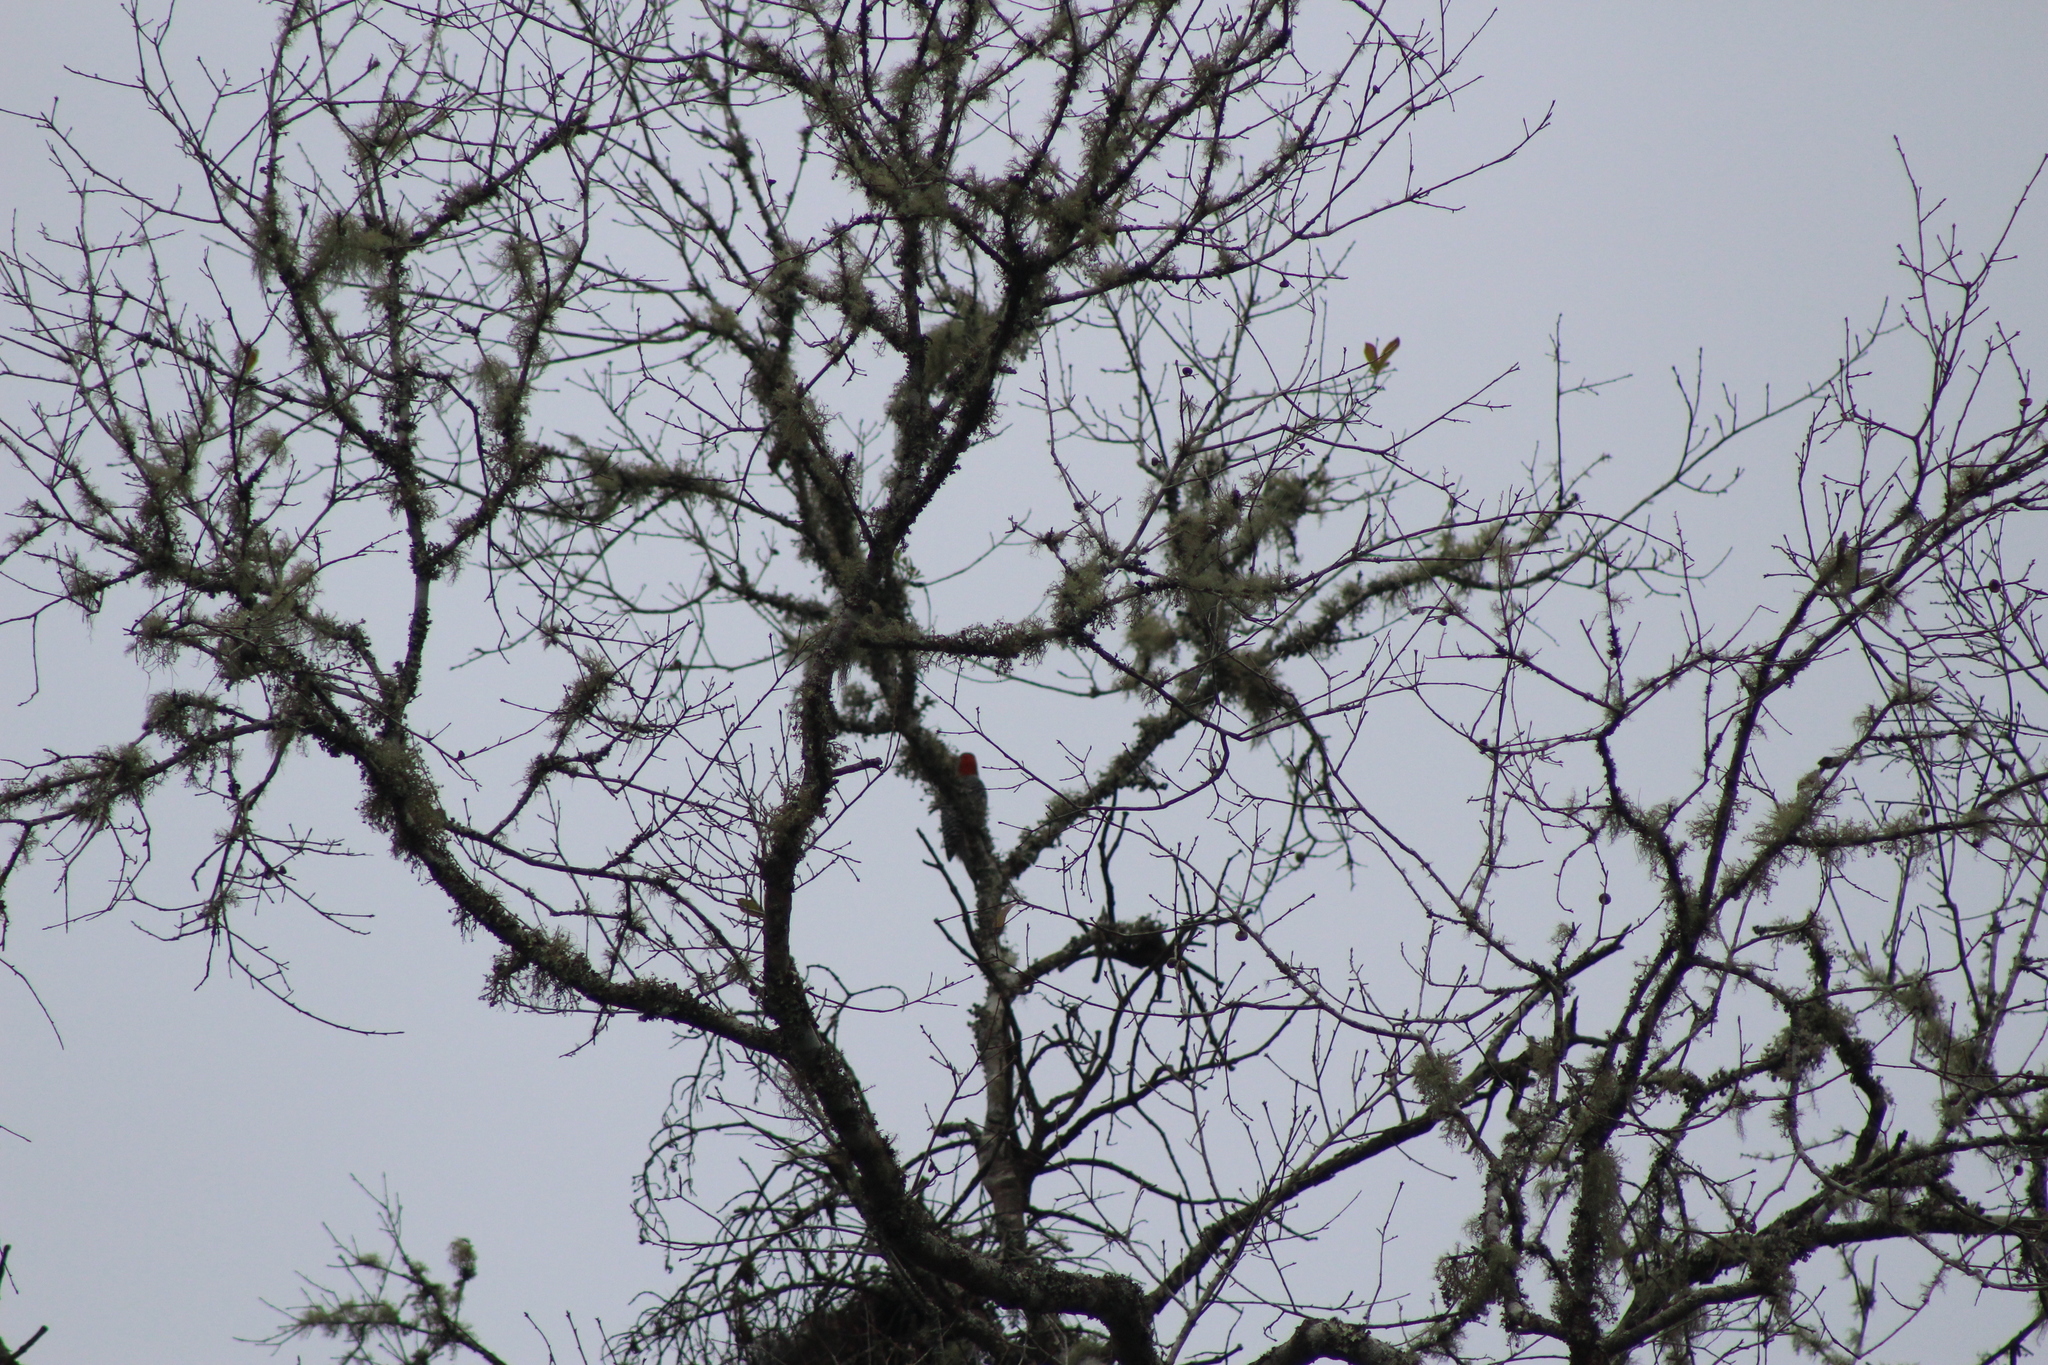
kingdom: Animalia
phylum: Chordata
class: Aves
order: Piciformes
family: Picidae
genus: Melanerpes
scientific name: Melanerpes carolinus
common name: Red-bellied woodpecker
